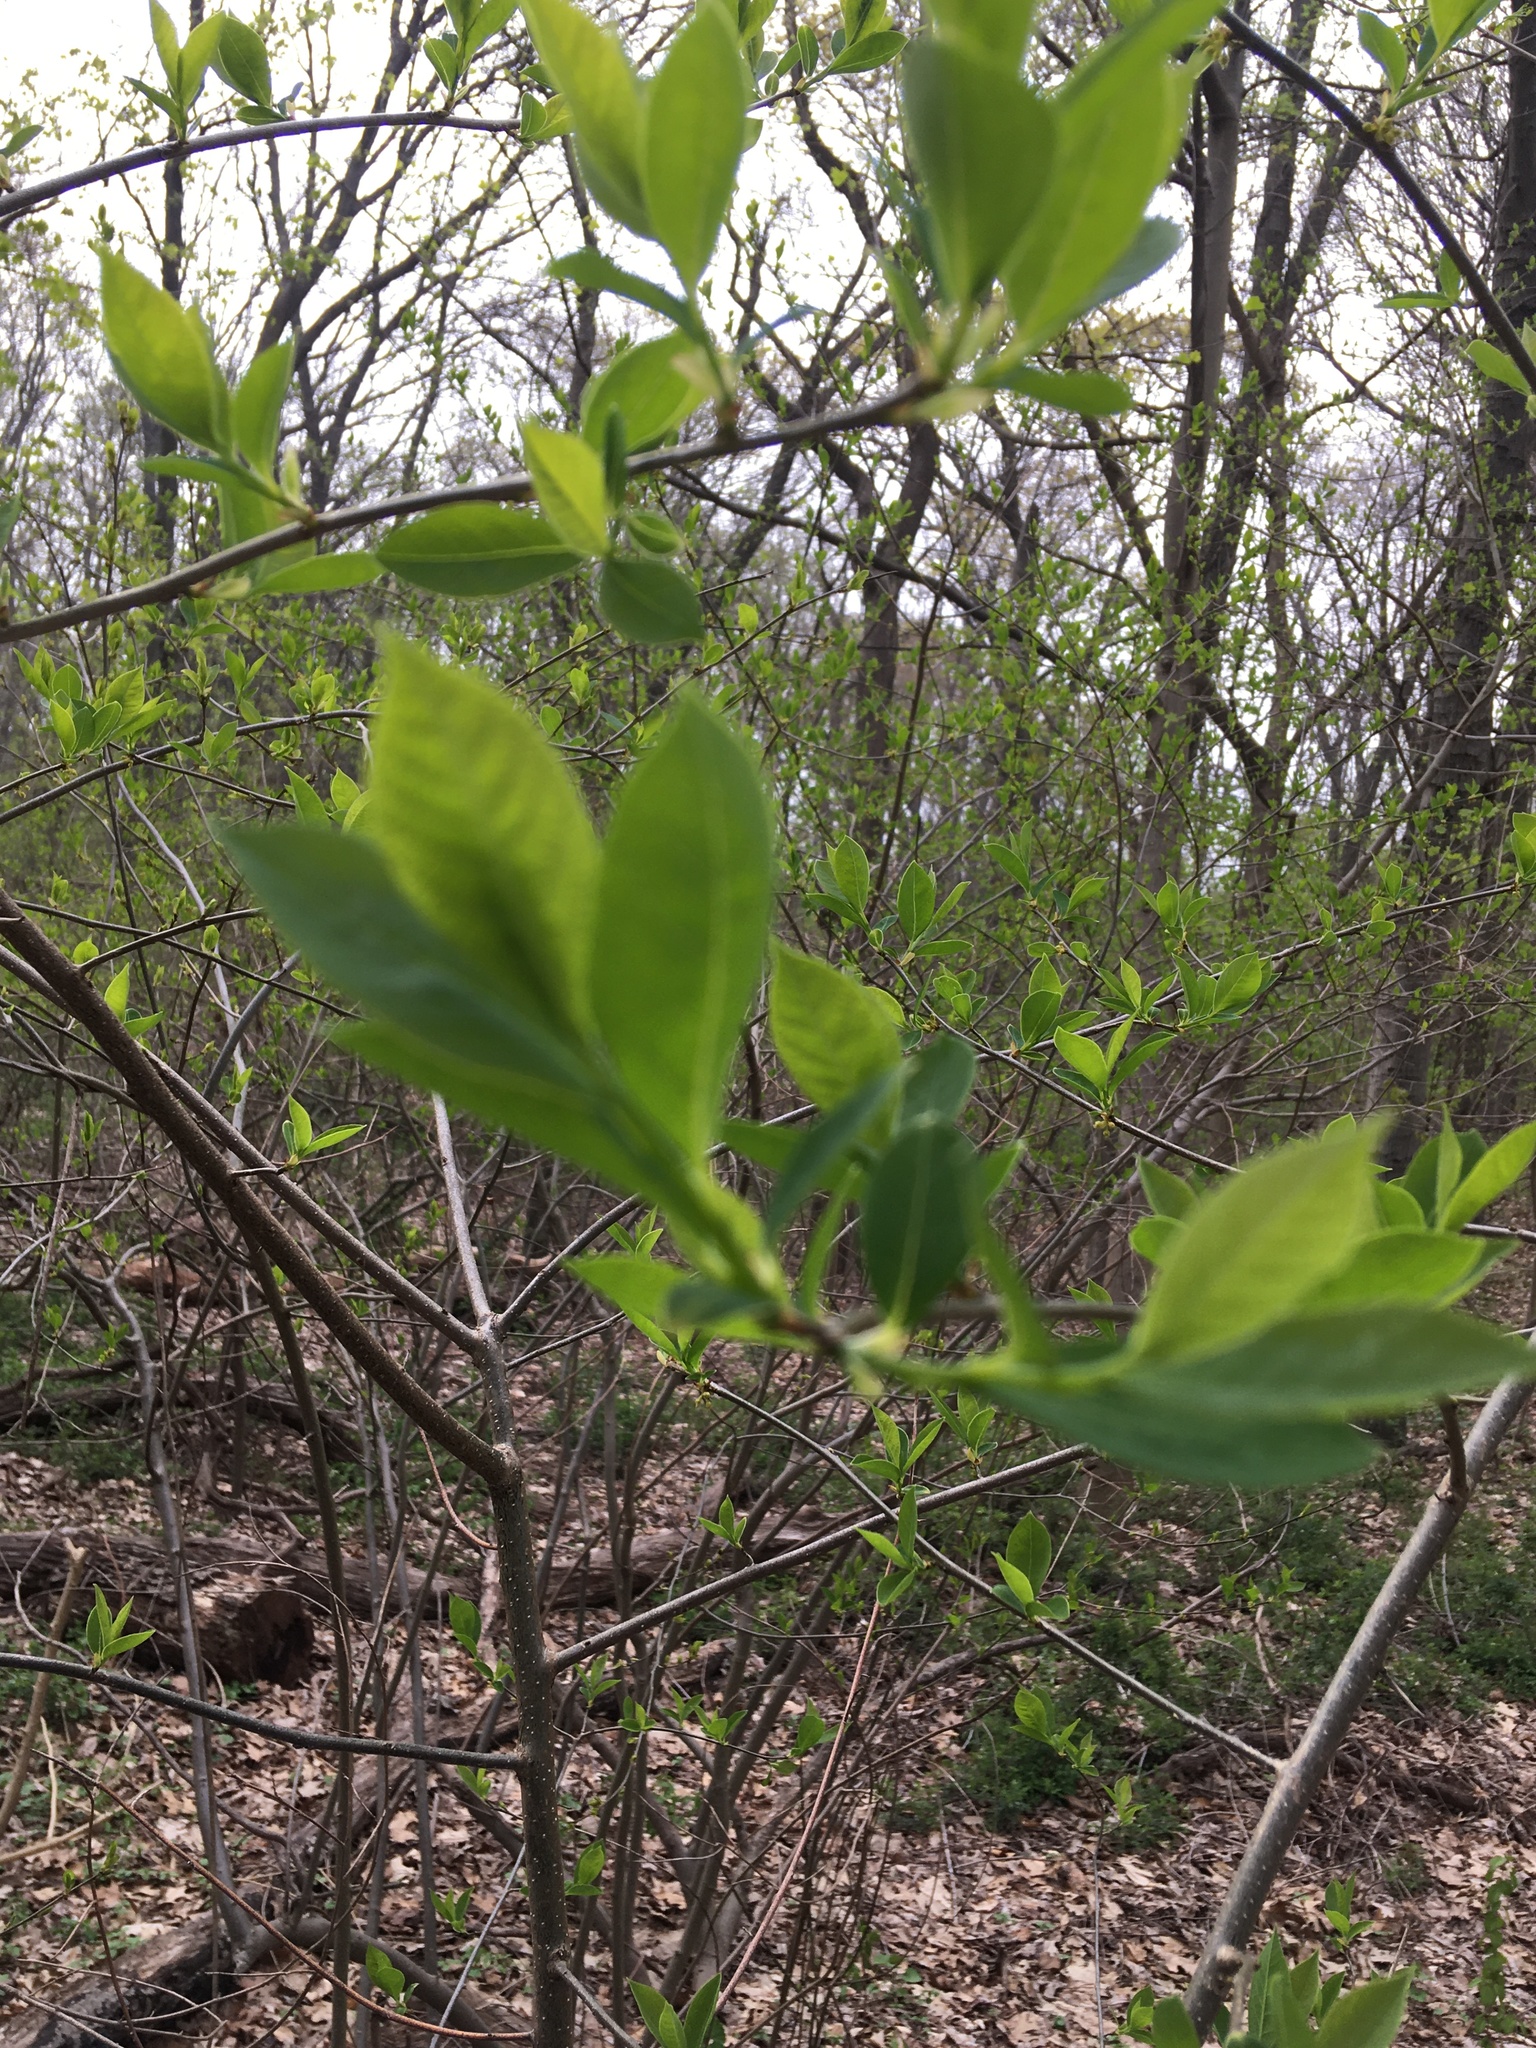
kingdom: Plantae
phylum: Tracheophyta
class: Magnoliopsida
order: Laurales
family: Lauraceae
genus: Lindera
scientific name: Lindera benzoin
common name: Spicebush
